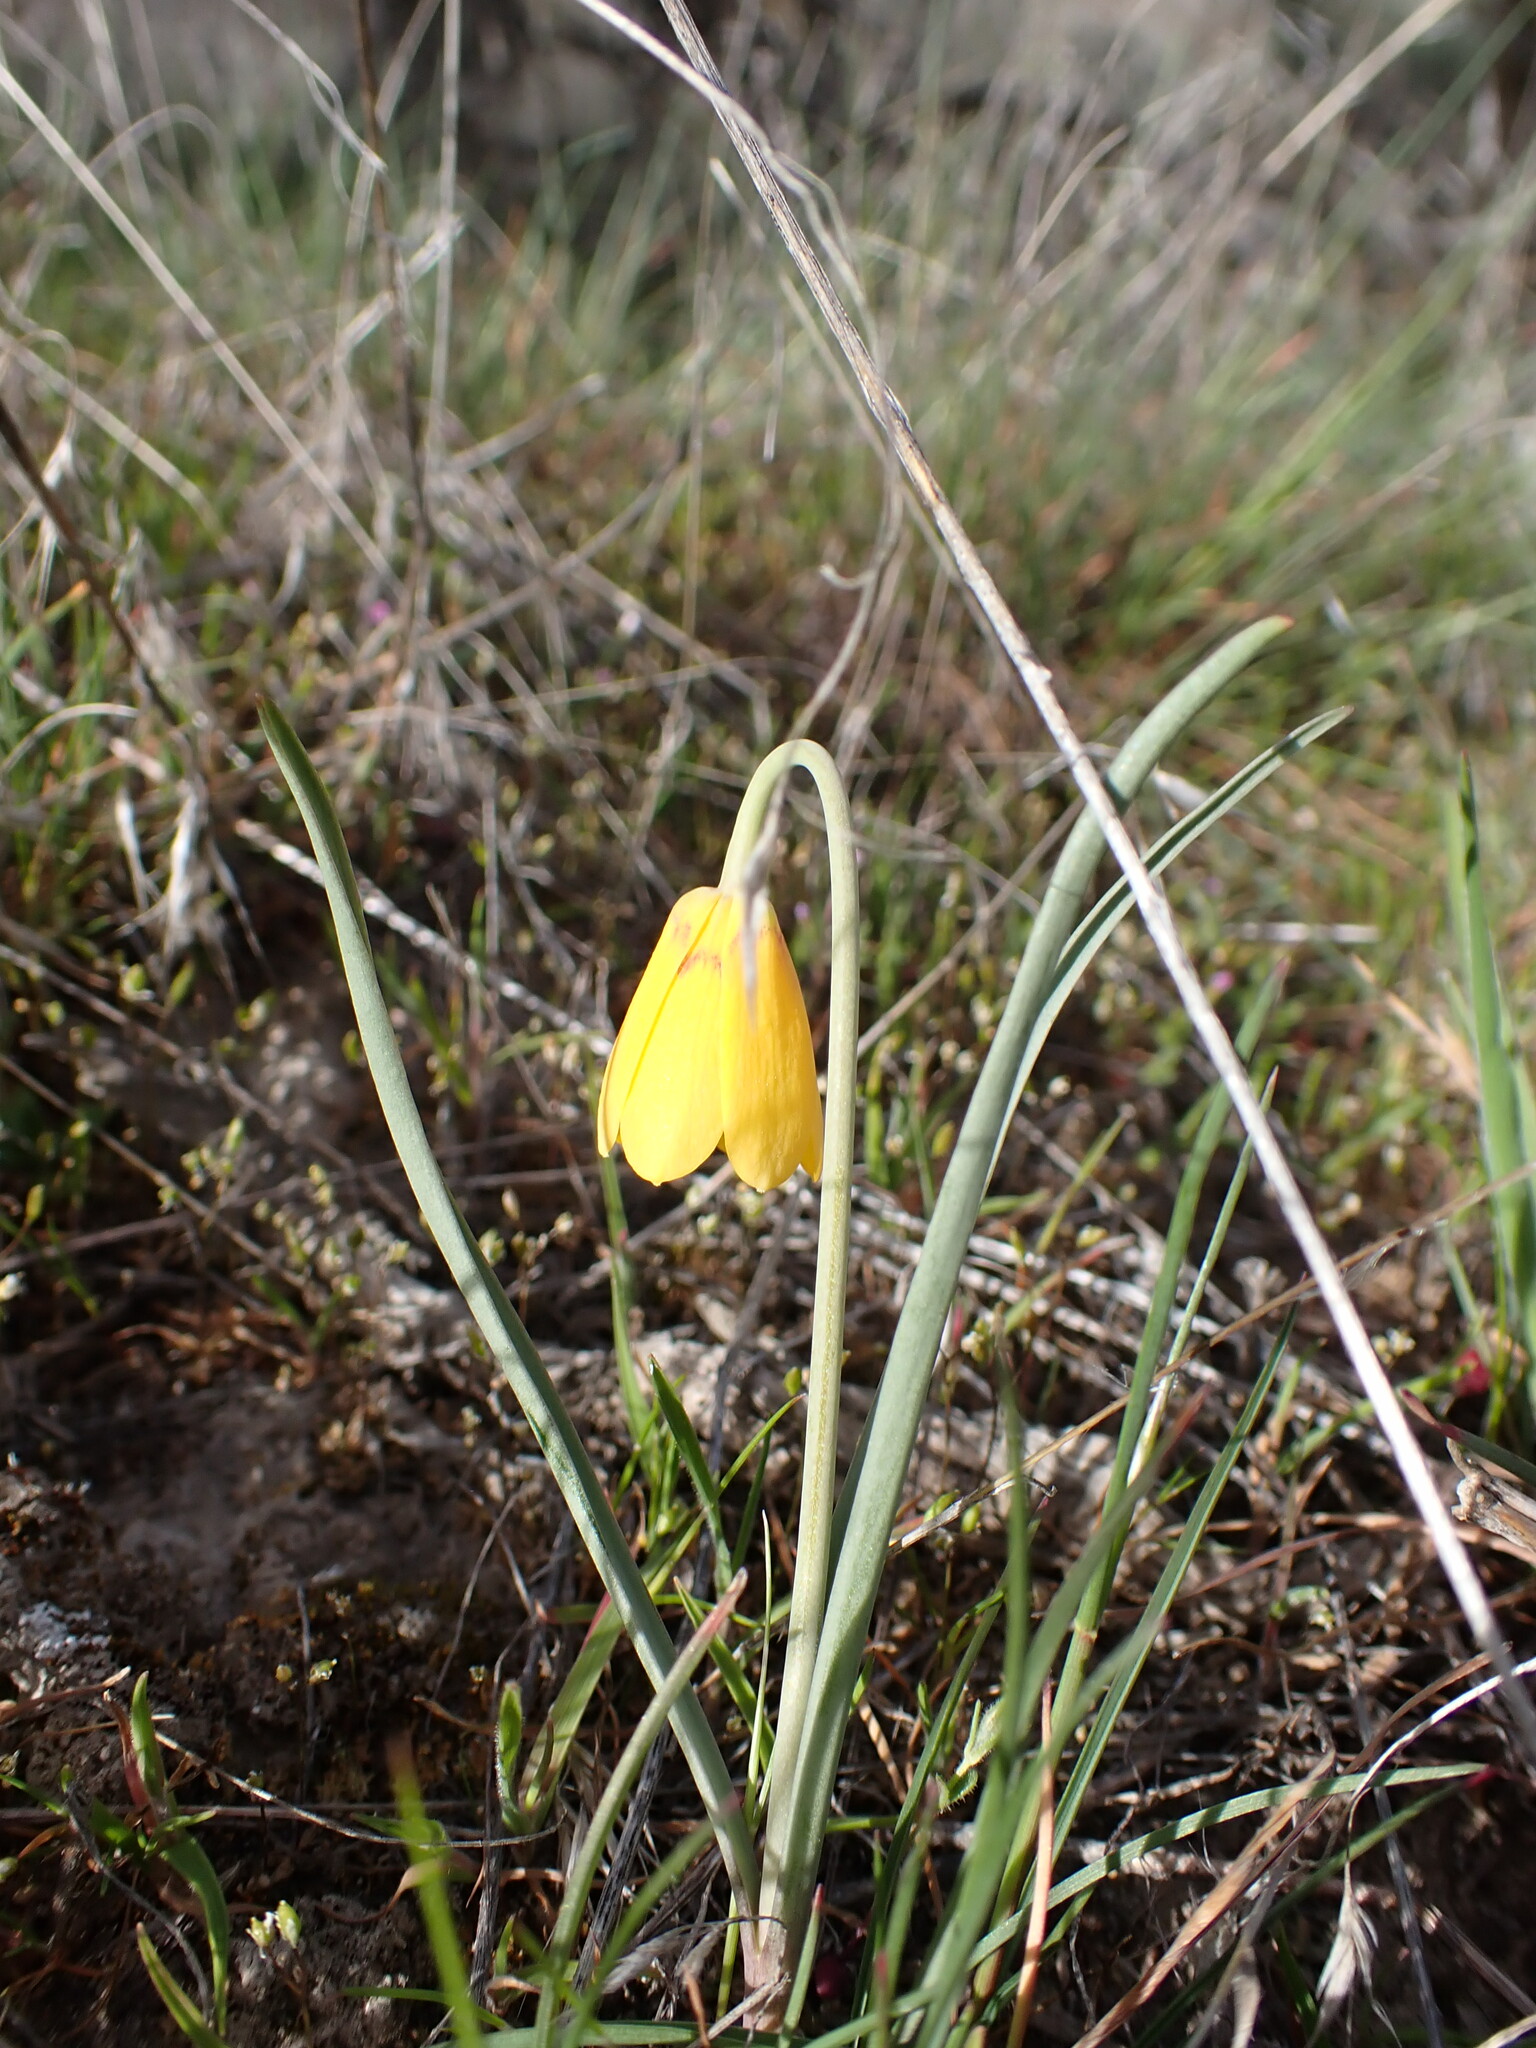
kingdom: Plantae
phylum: Tracheophyta
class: Liliopsida
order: Liliales
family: Liliaceae
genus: Fritillaria
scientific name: Fritillaria pudica
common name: Yellow fritillary
